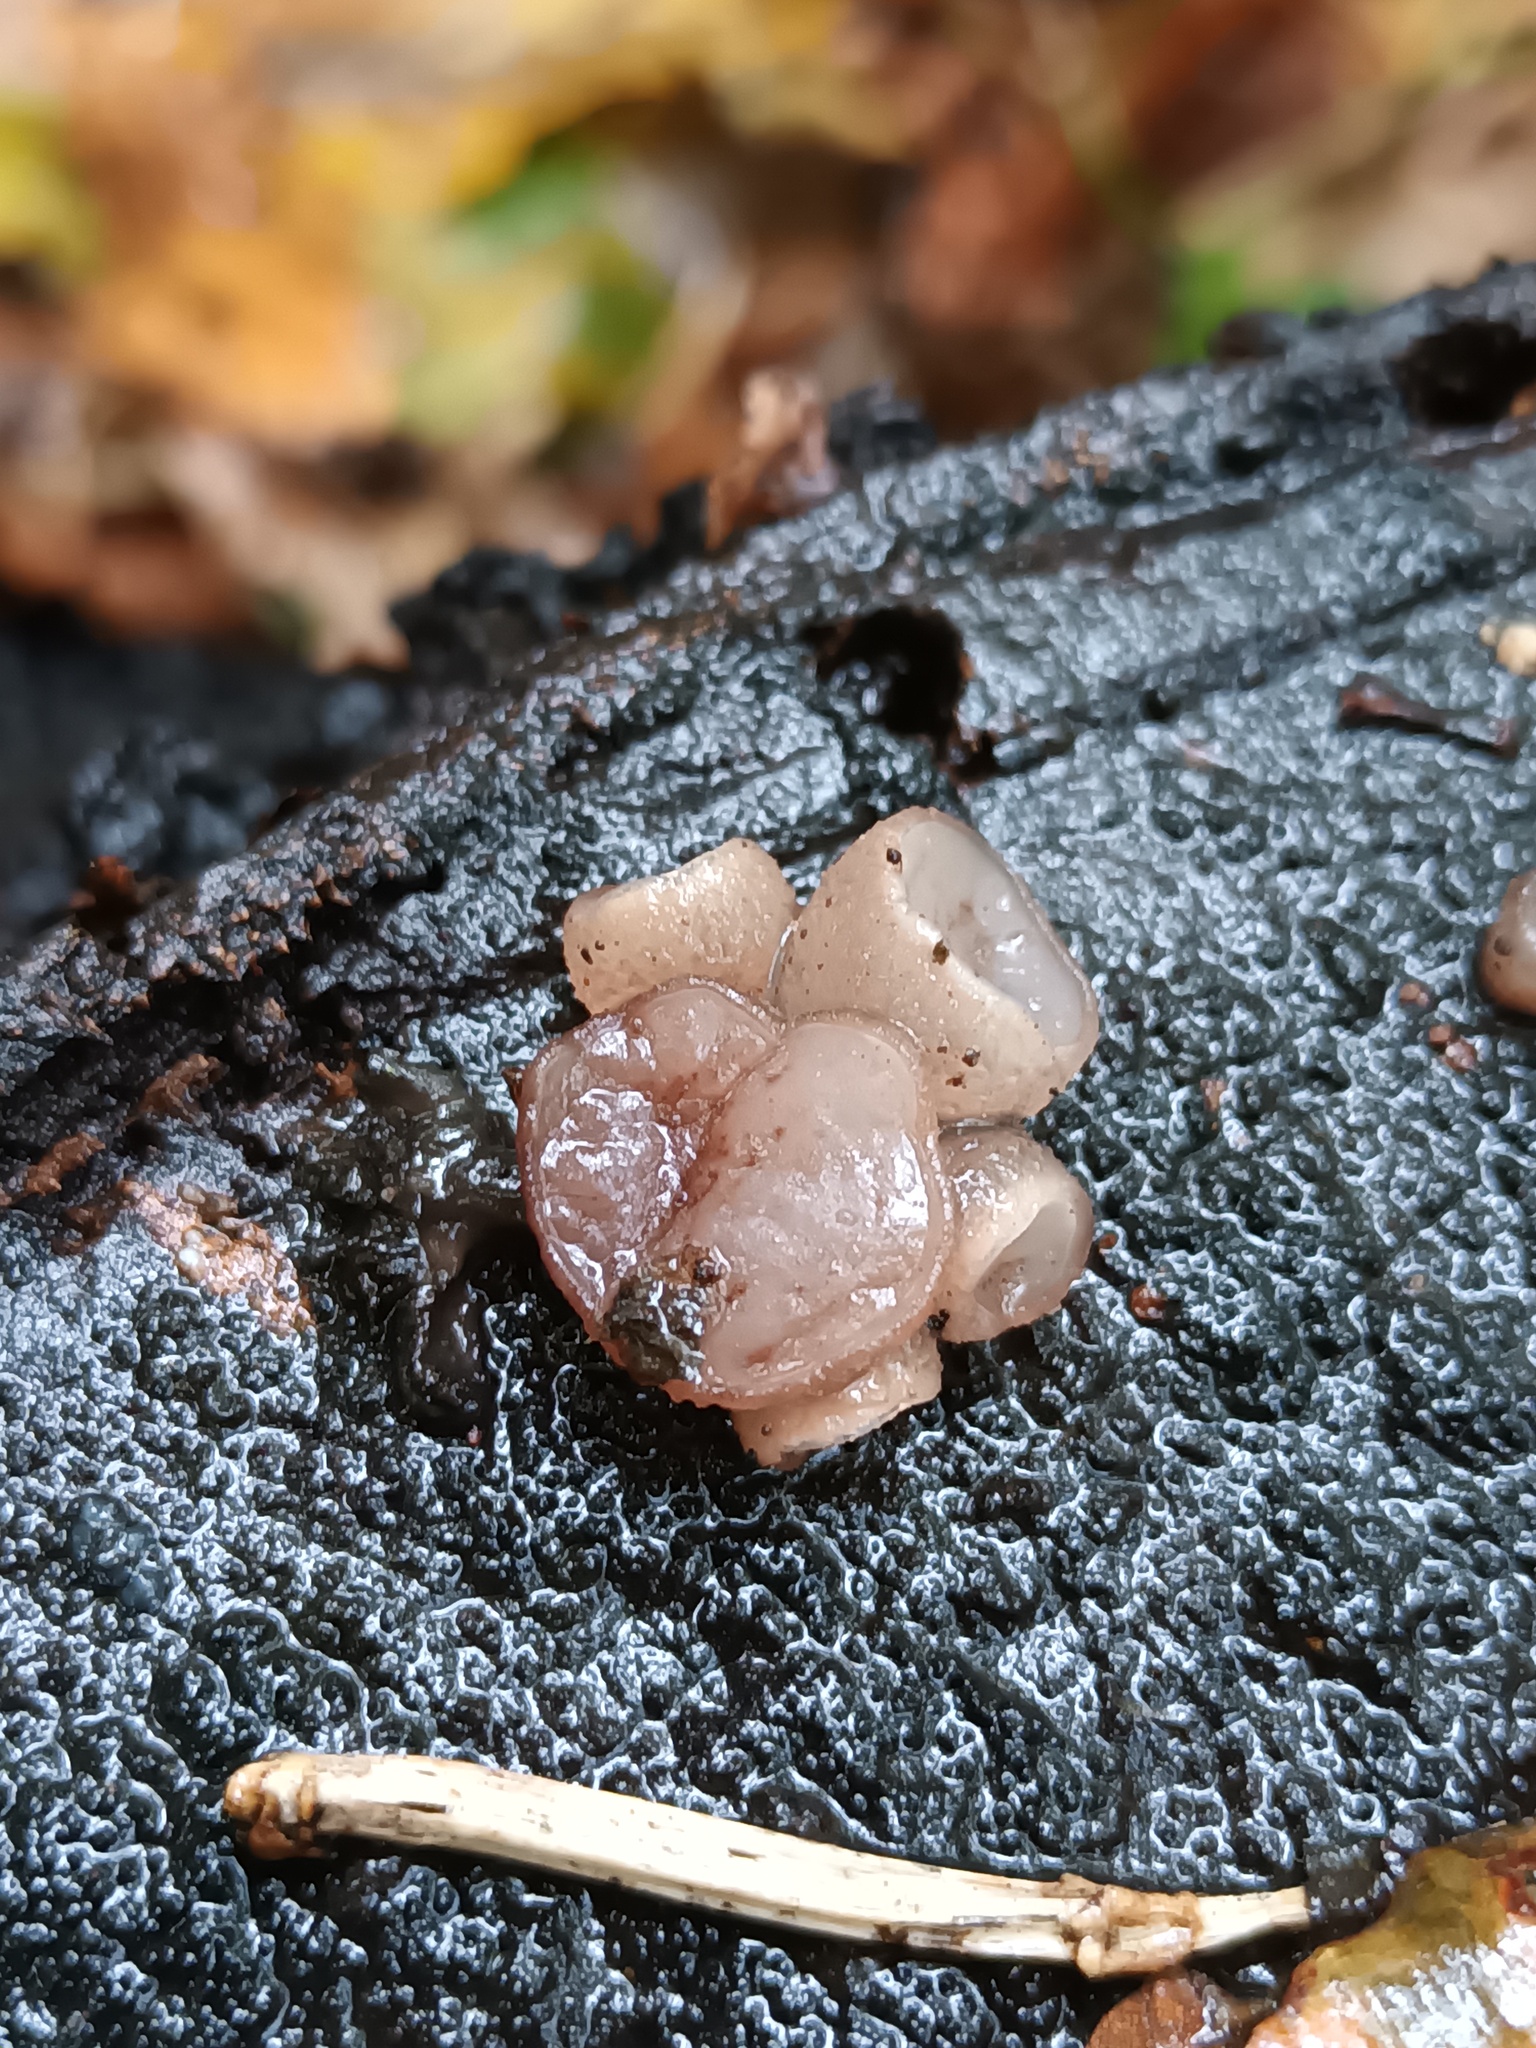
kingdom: Fungi
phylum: Ascomycota
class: Leotiomycetes
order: Helotiales
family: Gelatinodiscaceae
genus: Neobulgaria
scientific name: Neobulgaria pura
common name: Beech jelly-disc
